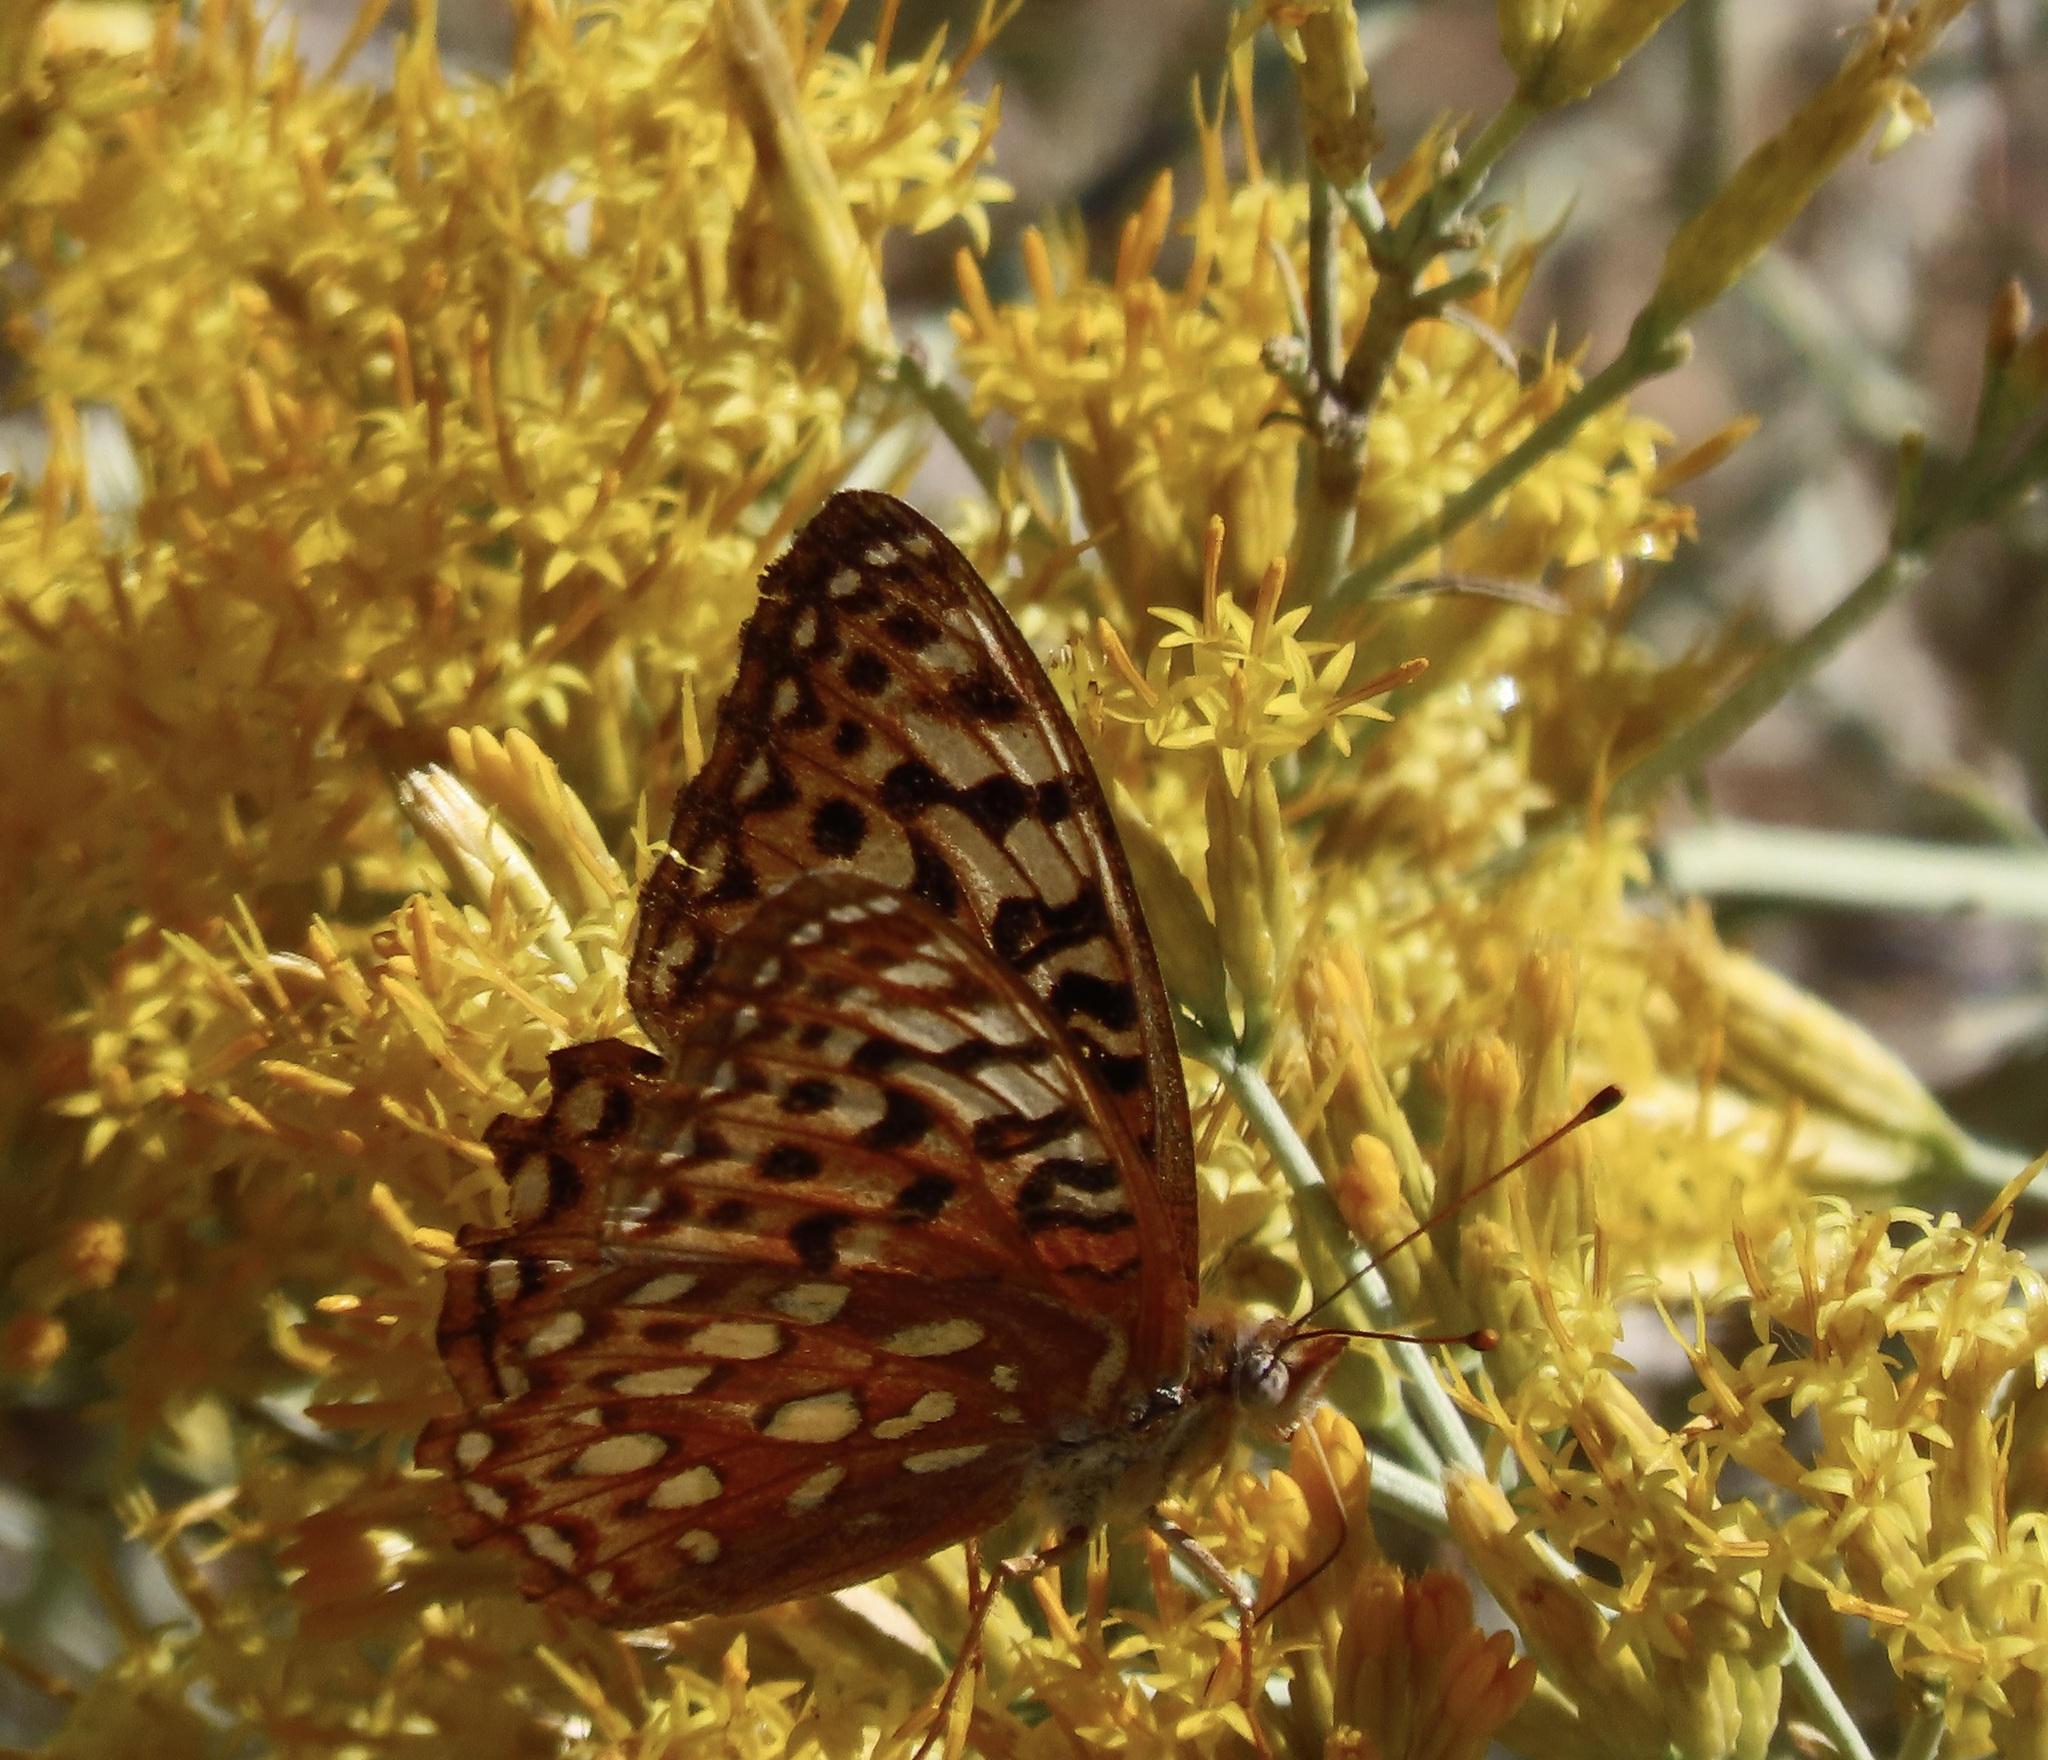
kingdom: Animalia
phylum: Arthropoda
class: Insecta
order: Lepidoptera
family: Nymphalidae
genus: Argynnis
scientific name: Argynnis coronis
